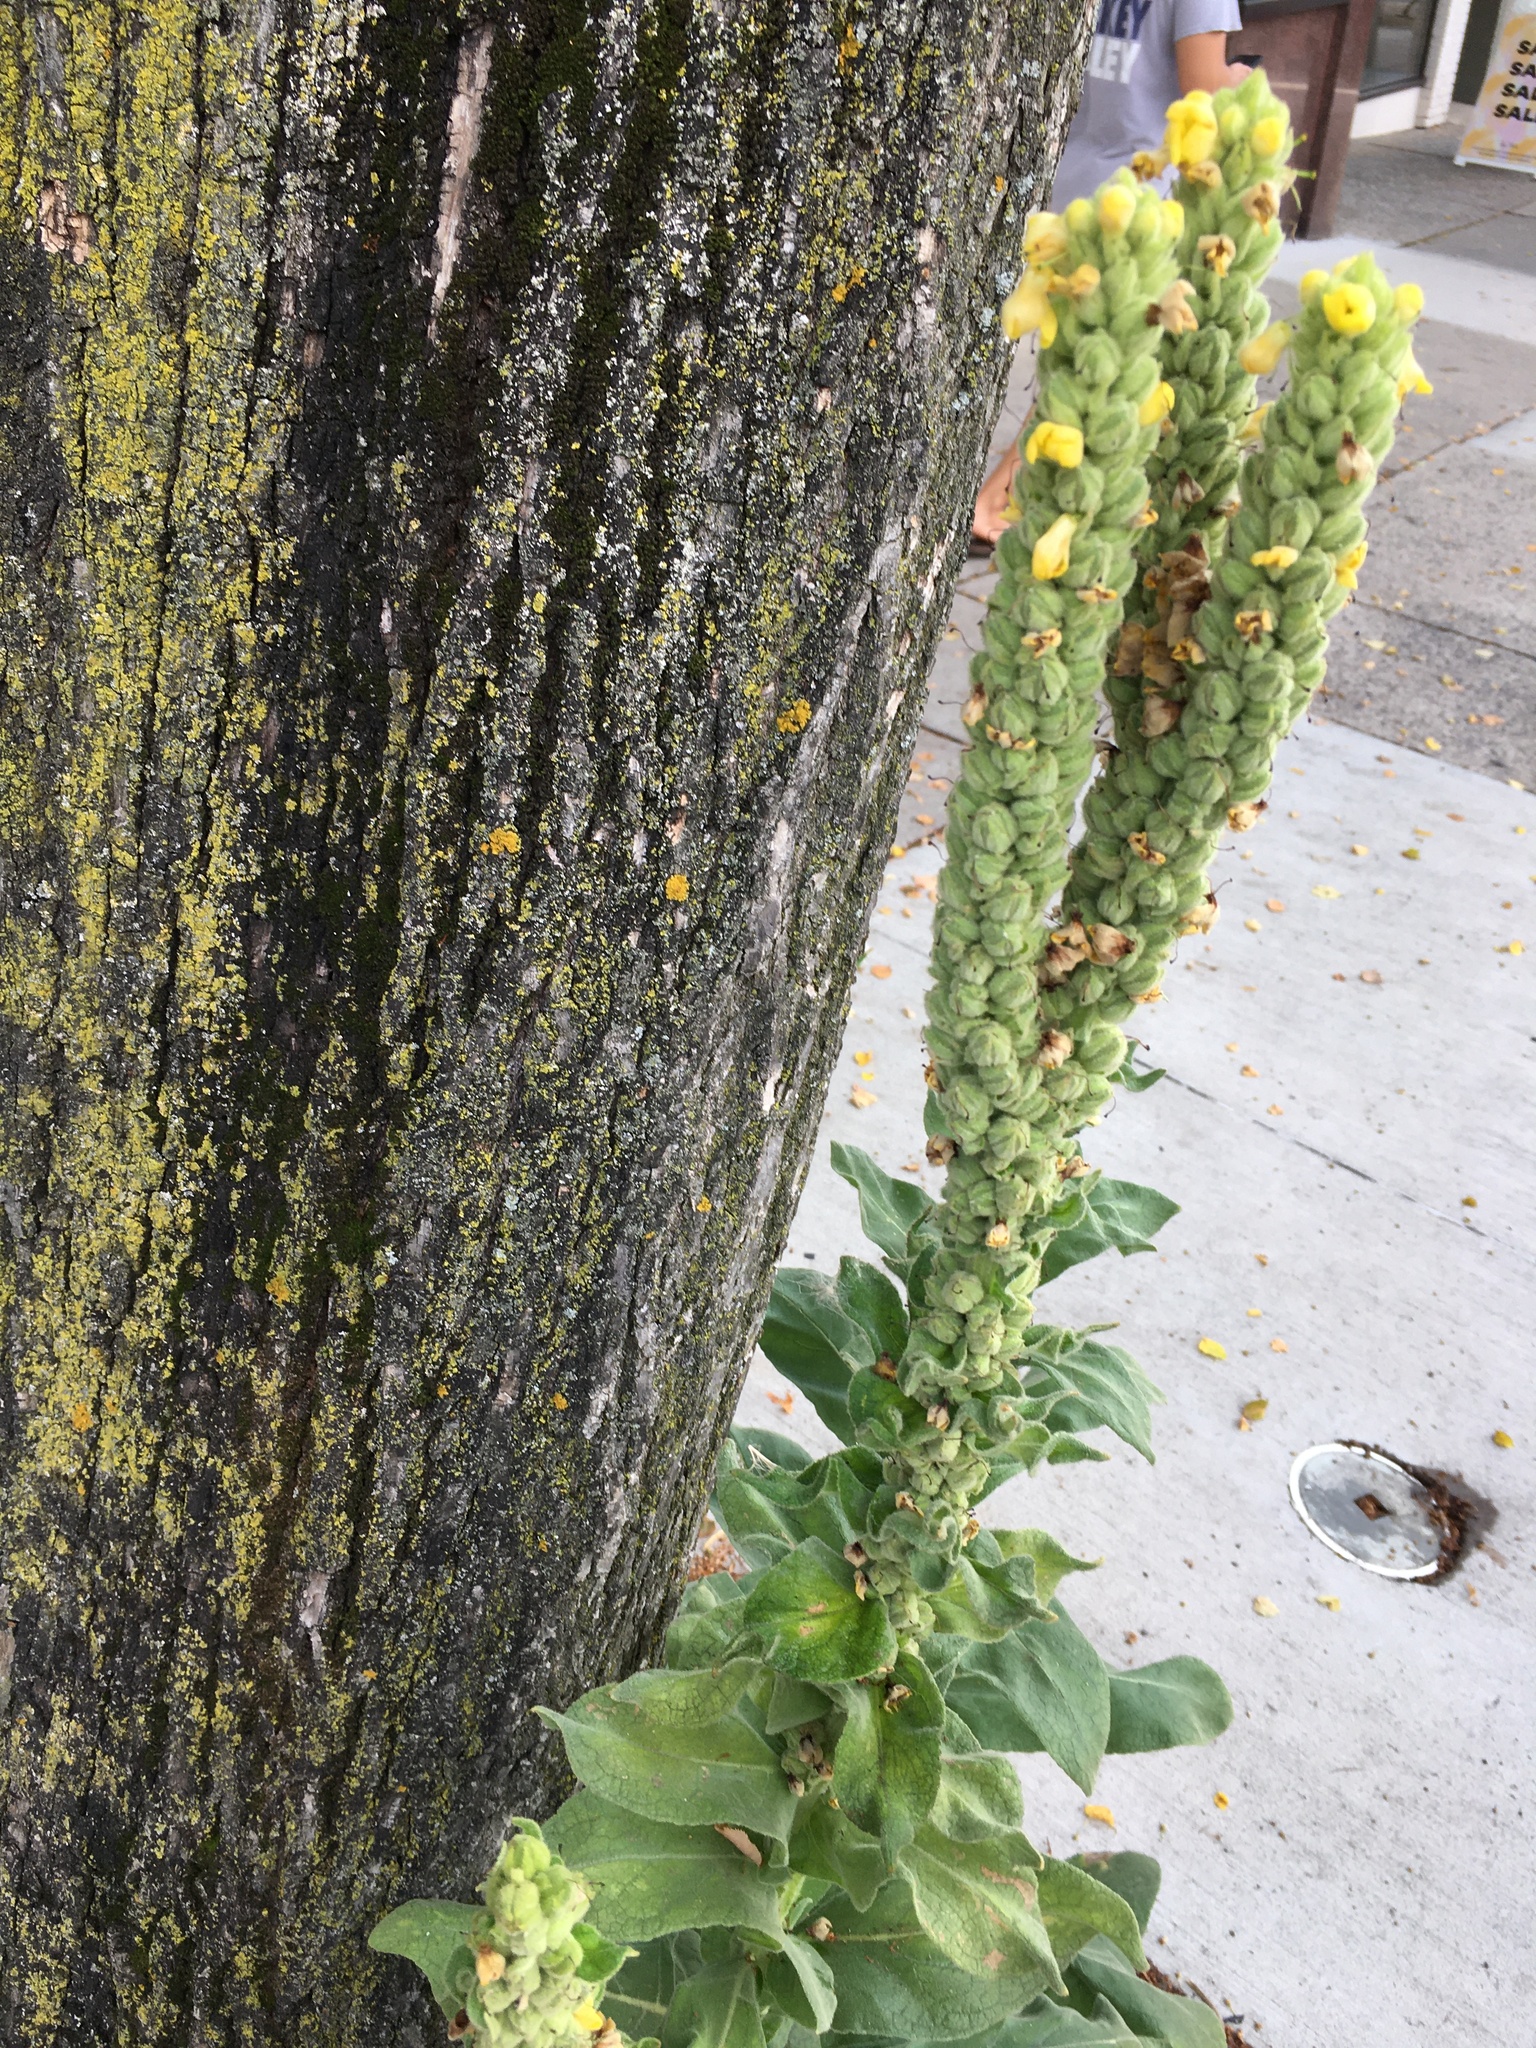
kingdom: Plantae
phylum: Tracheophyta
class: Magnoliopsida
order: Lamiales
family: Scrophulariaceae
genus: Verbascum
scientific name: Verbascum thapsus
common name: Common mullein
